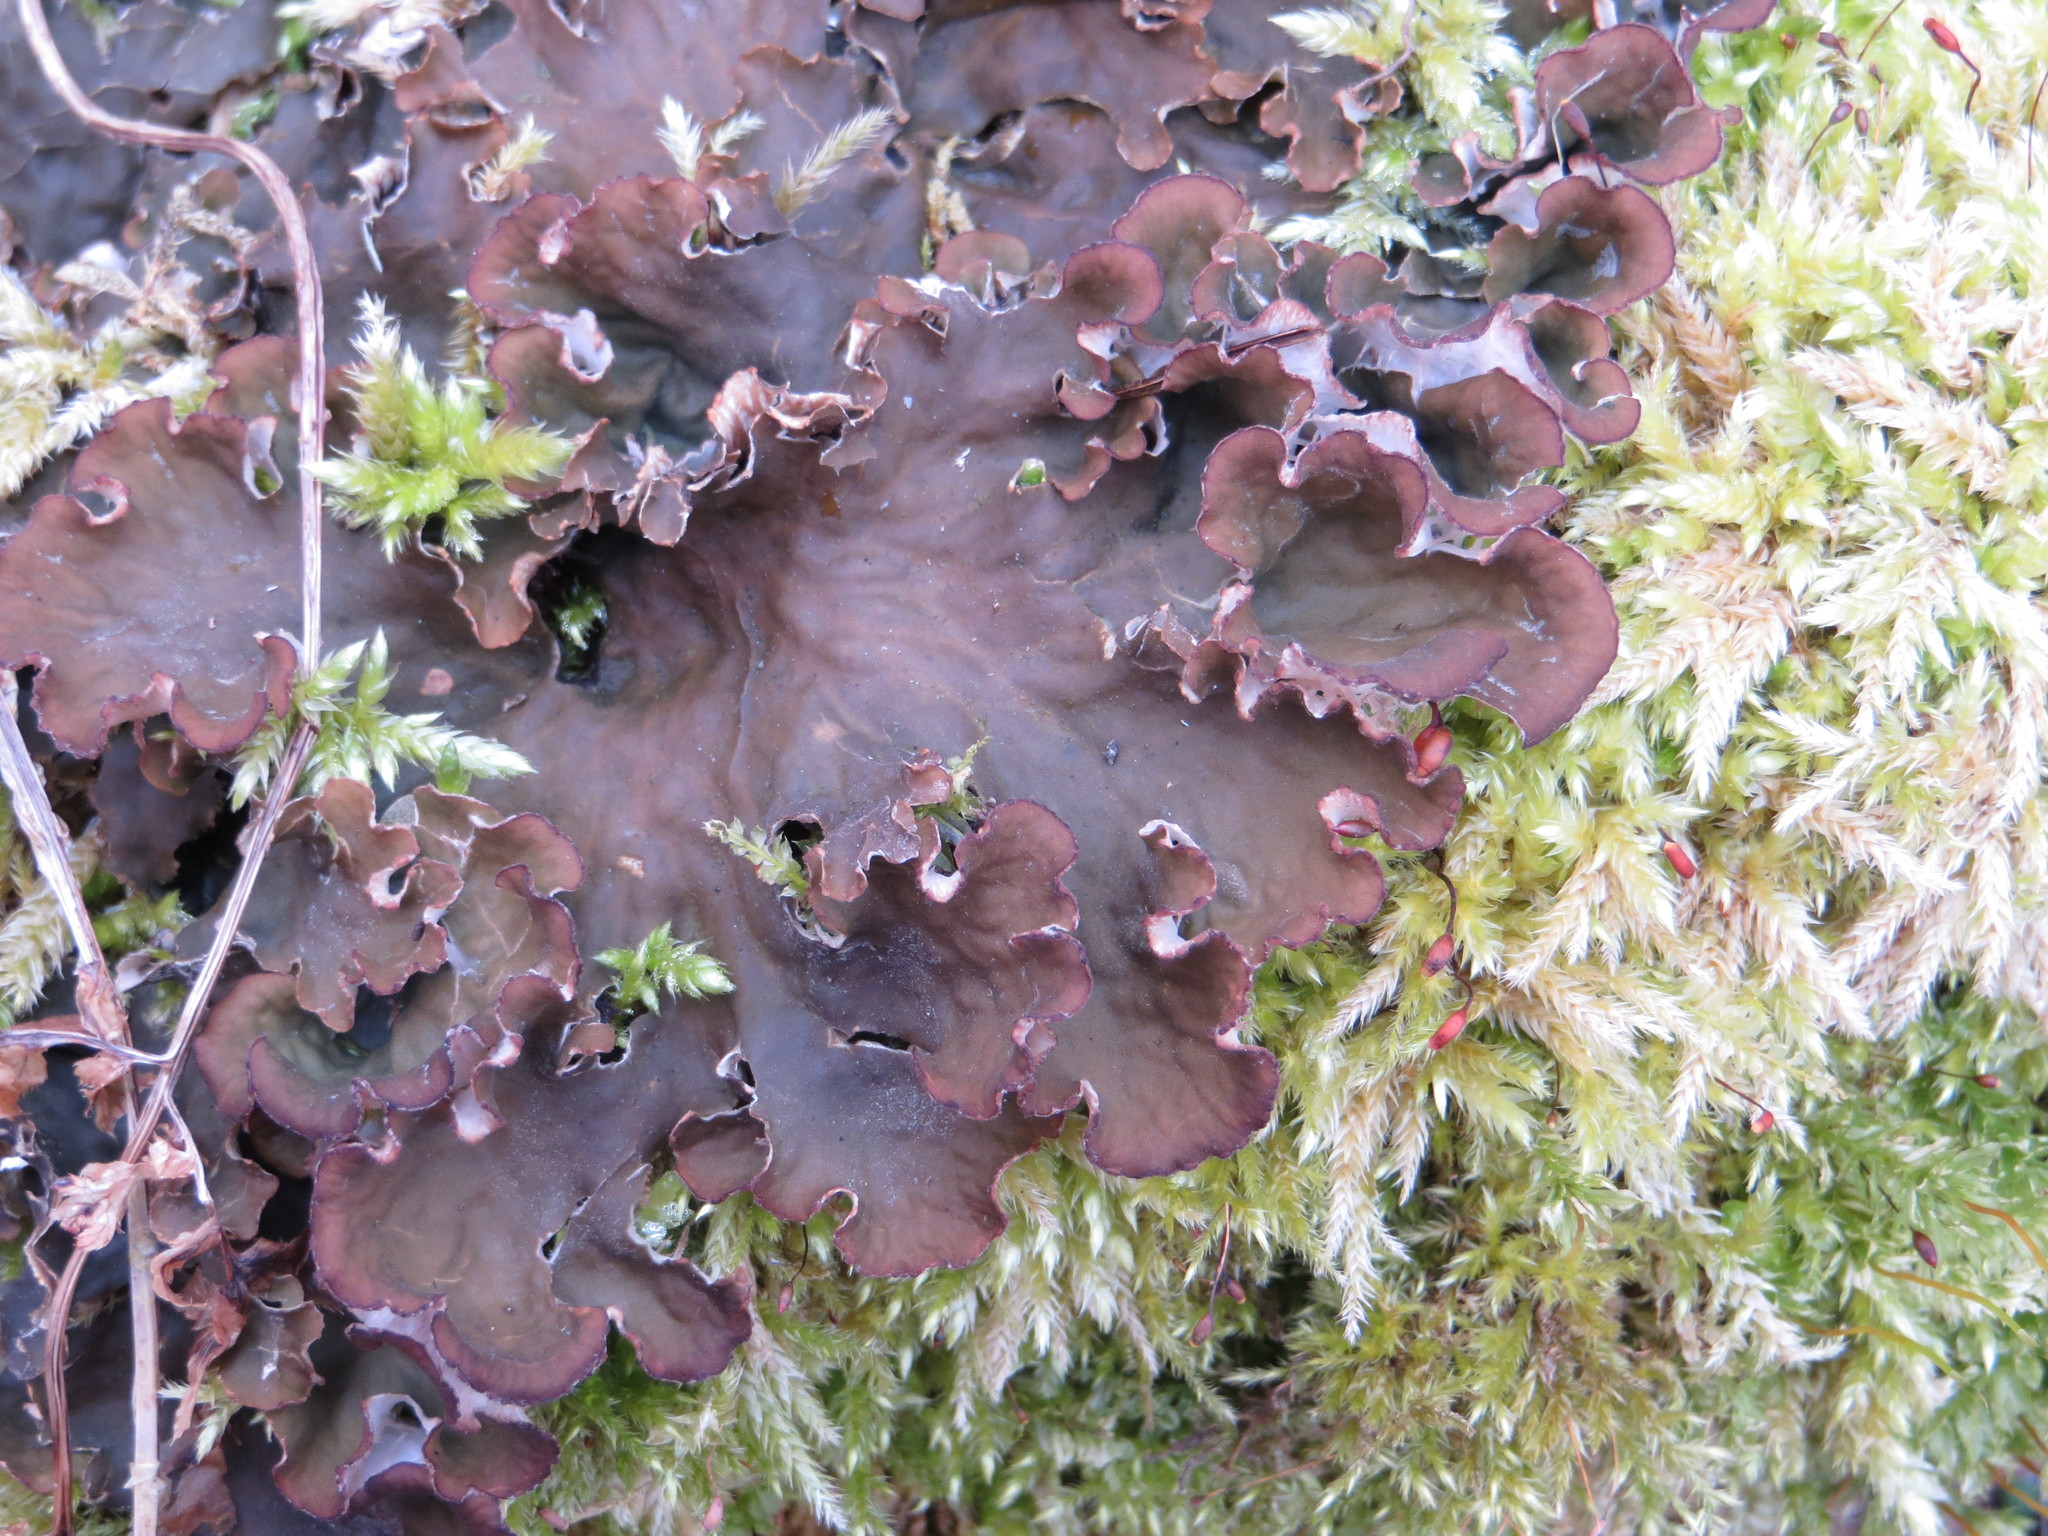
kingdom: Fungi
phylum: Ascomycota
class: Lecanoromycetes
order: Peltigerales
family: Peltigeraceae
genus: Peltigera
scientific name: Peltigera canina
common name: Dog pelt lichen
